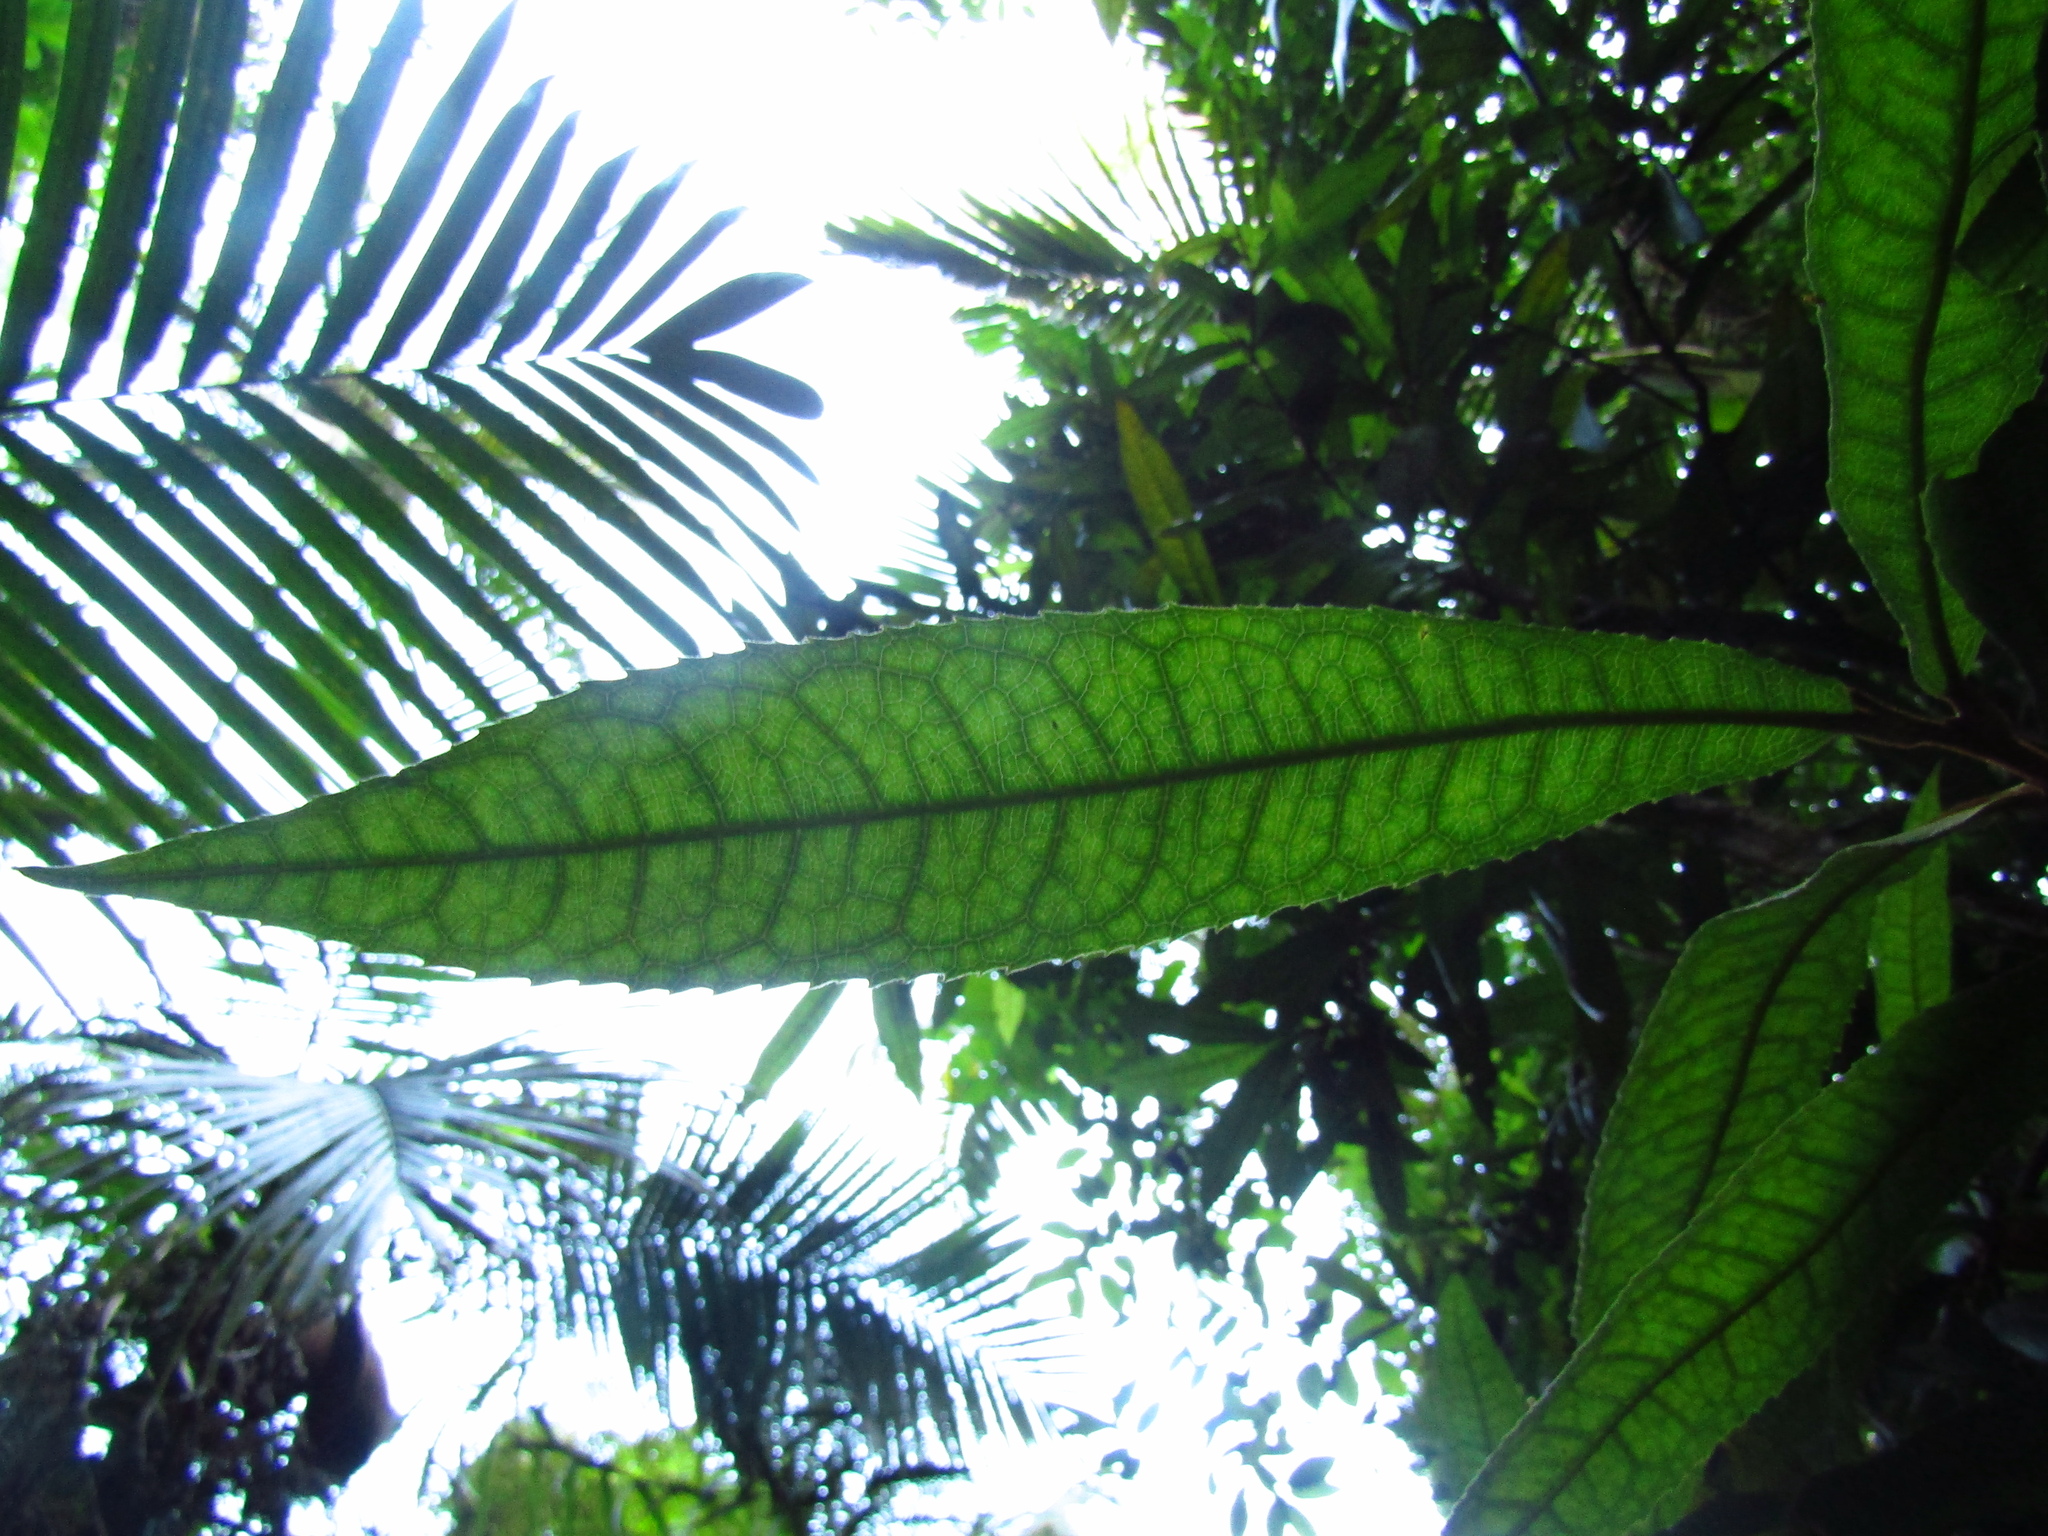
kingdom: Plantae
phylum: Tracheophyta
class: Magnoliopsida
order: Proteales
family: Proteaceae
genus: Helicia
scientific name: Helicia ferruginea
